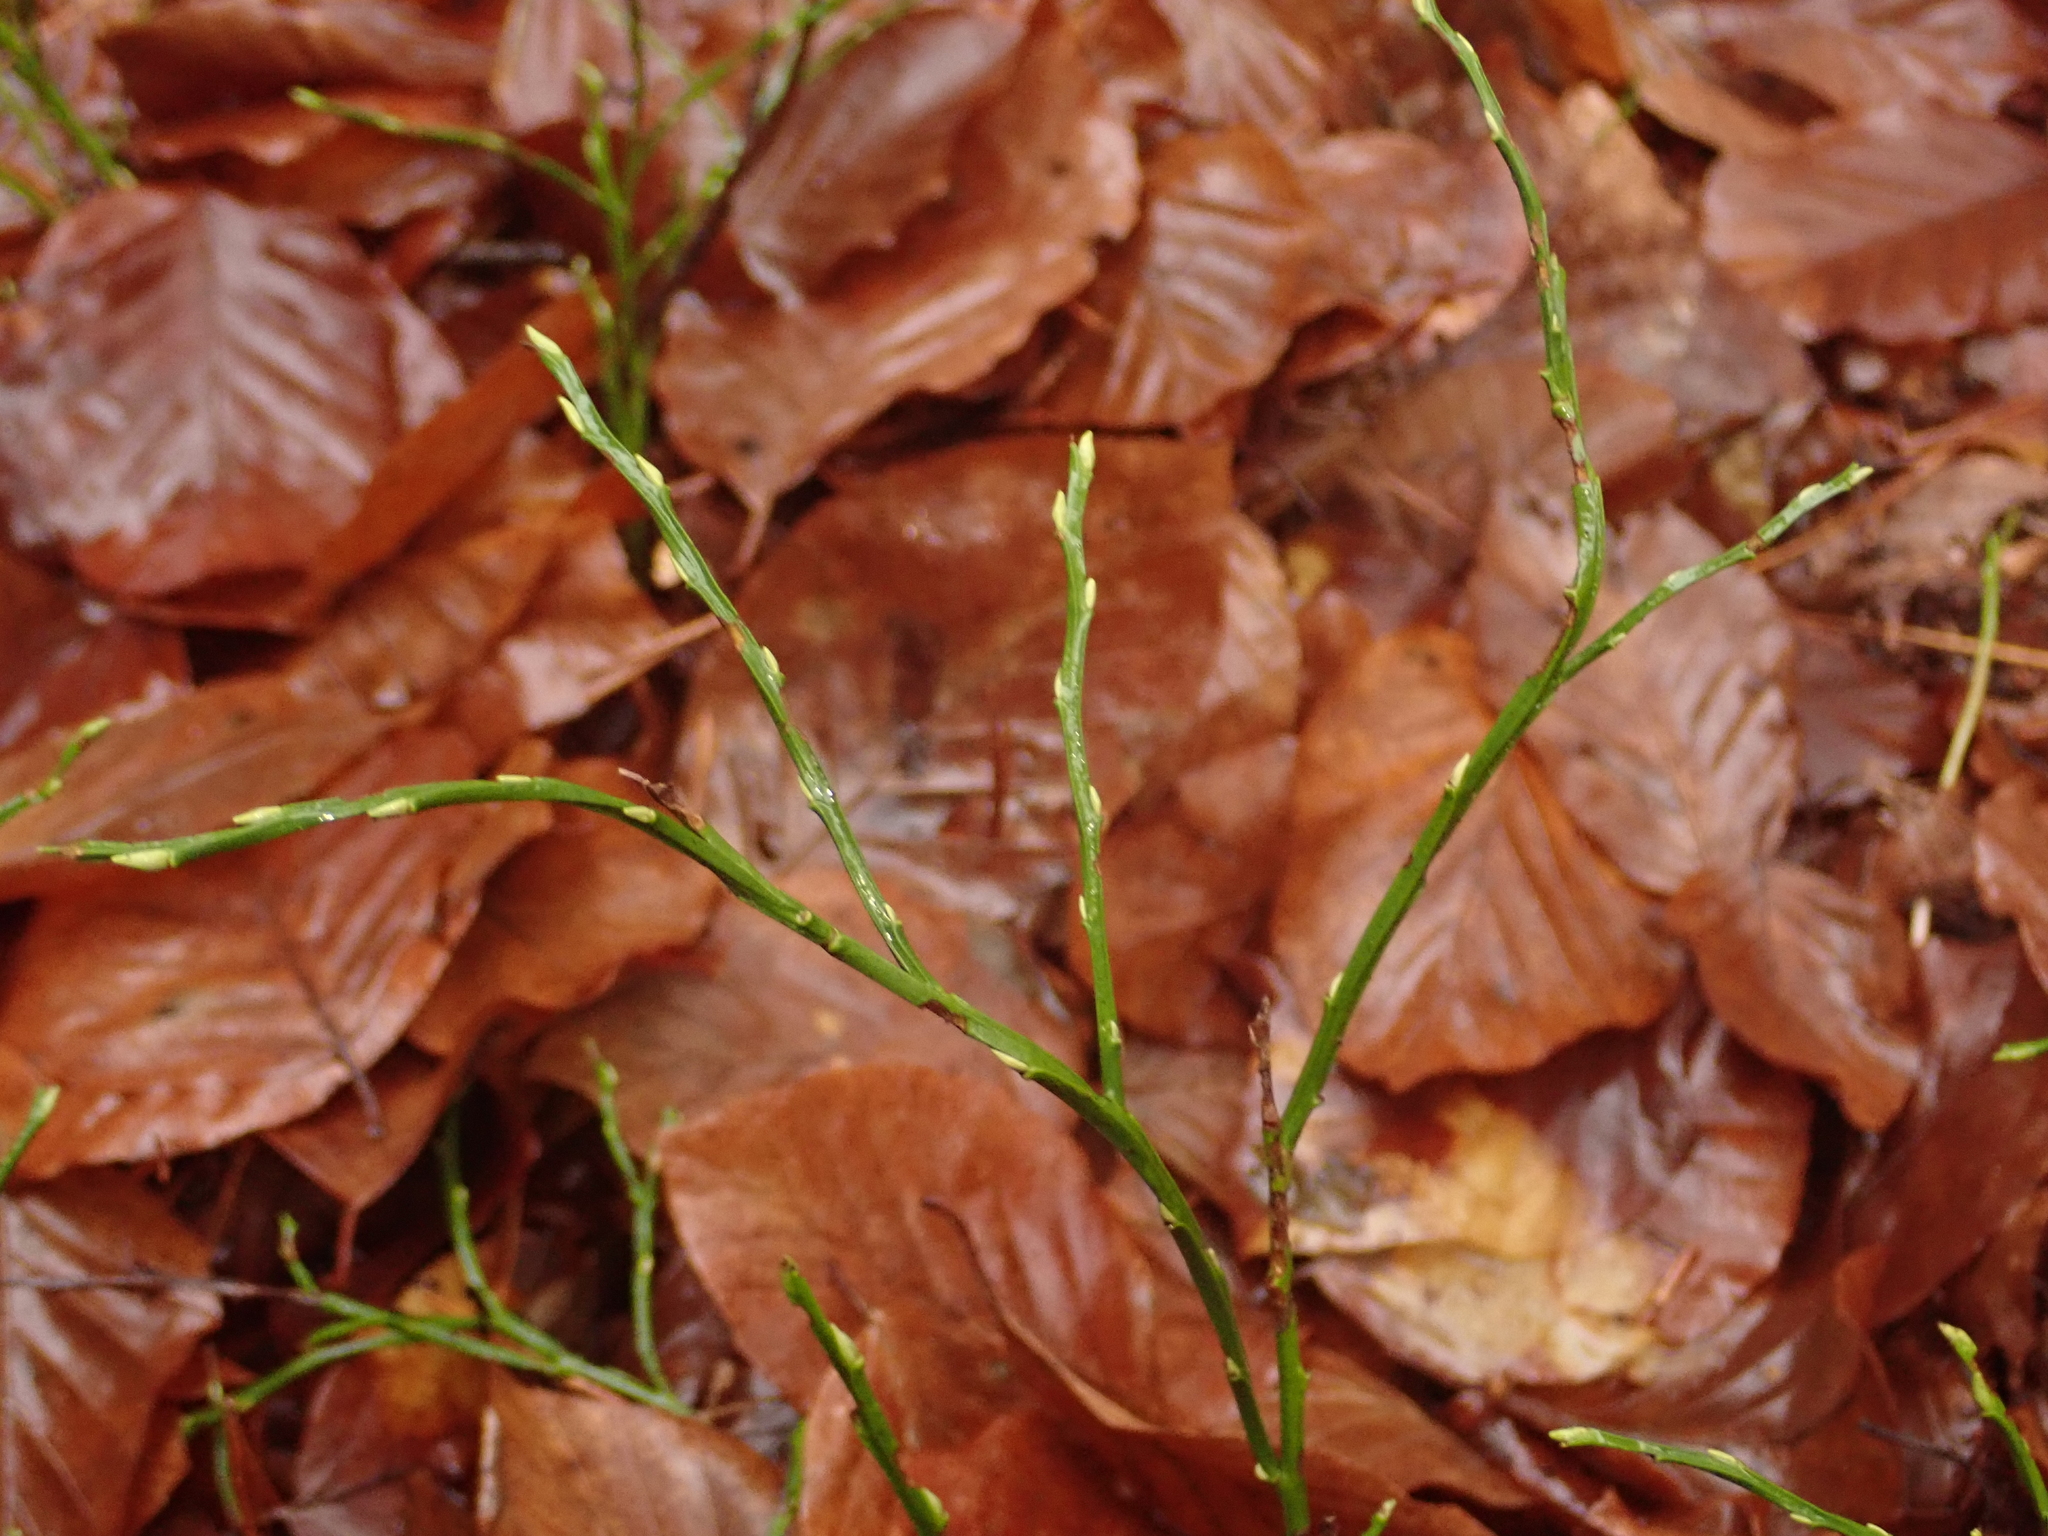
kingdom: Plantae
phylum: Tracheophyta
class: Magnoliopsida
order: Ericales
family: Ericaceae
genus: Vaccinium
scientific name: Vaccinium myrtillus
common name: Bilberry
